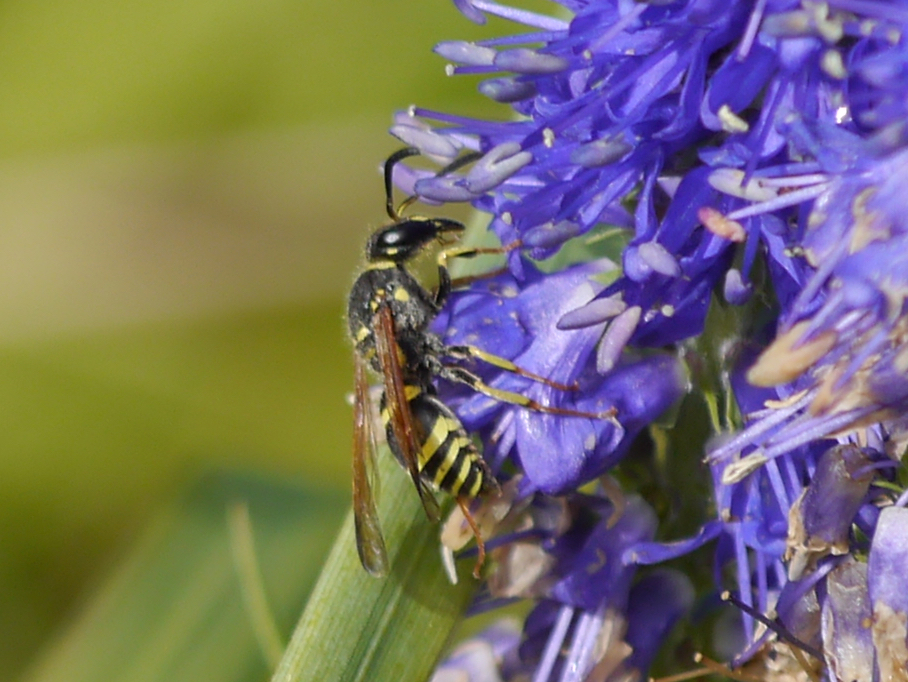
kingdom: Animalia
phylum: Arthropoda
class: Insecta
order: Hymenoptera
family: Vespidae
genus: Ancistrocerus
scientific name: Ancistrocerus spilogaster
